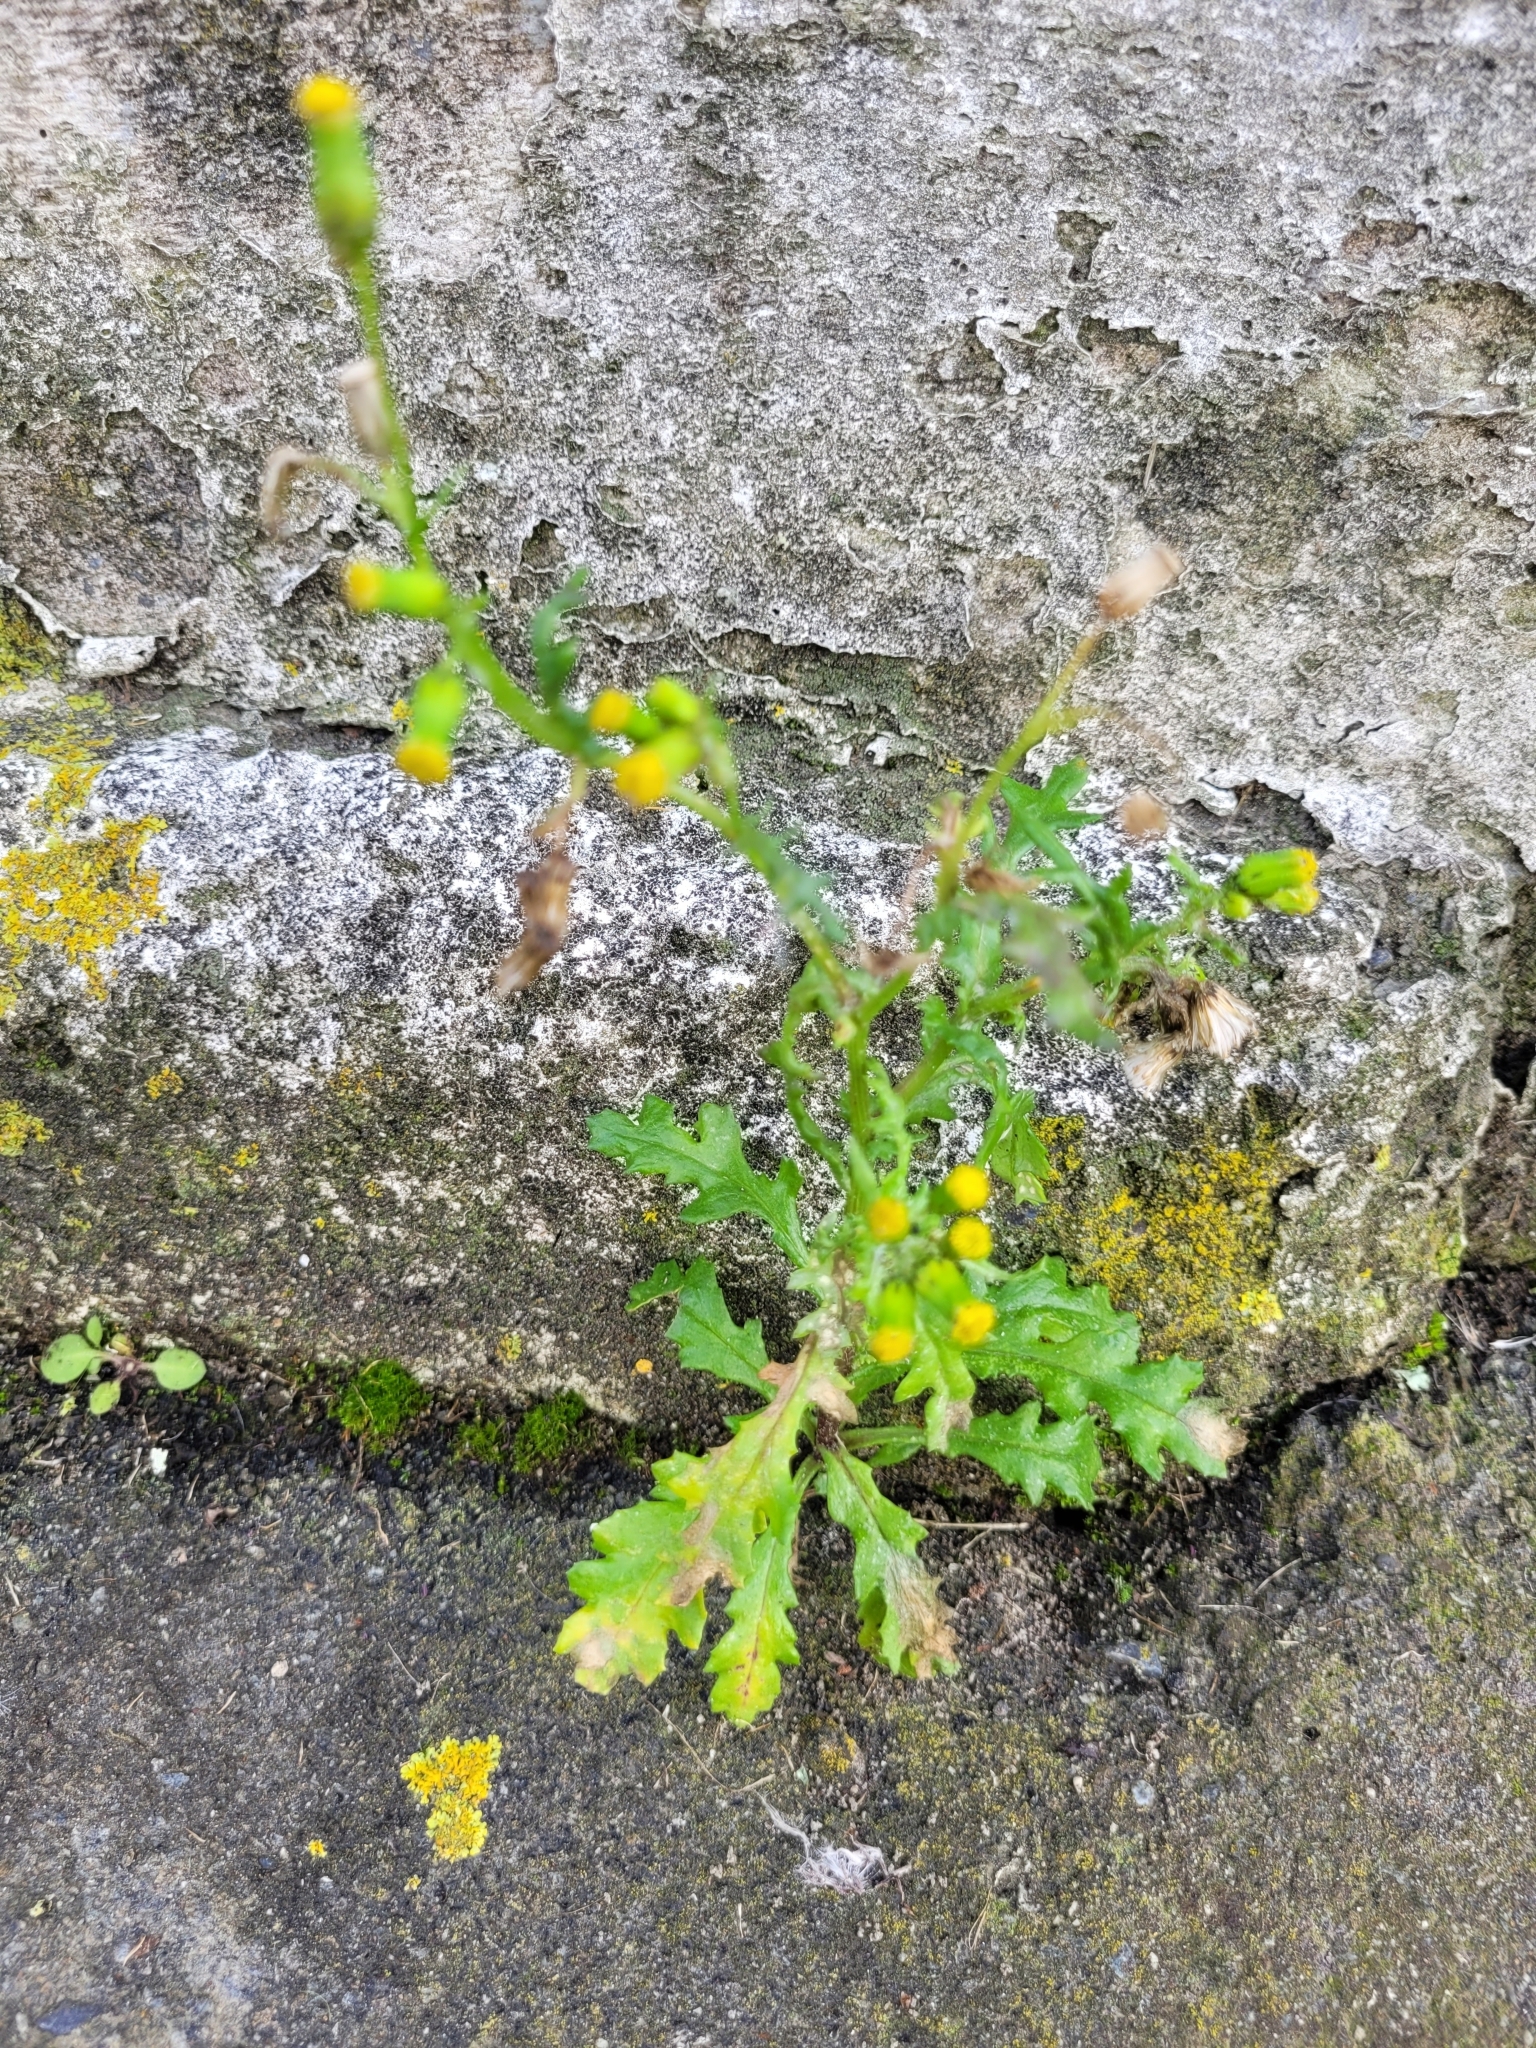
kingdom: Plantae
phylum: Tracheophyta
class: Magnoliopsida
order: Asterales
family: Asteraceae
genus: Senecio
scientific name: Senecio vulgaris
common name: Old-man-in-the-spring
